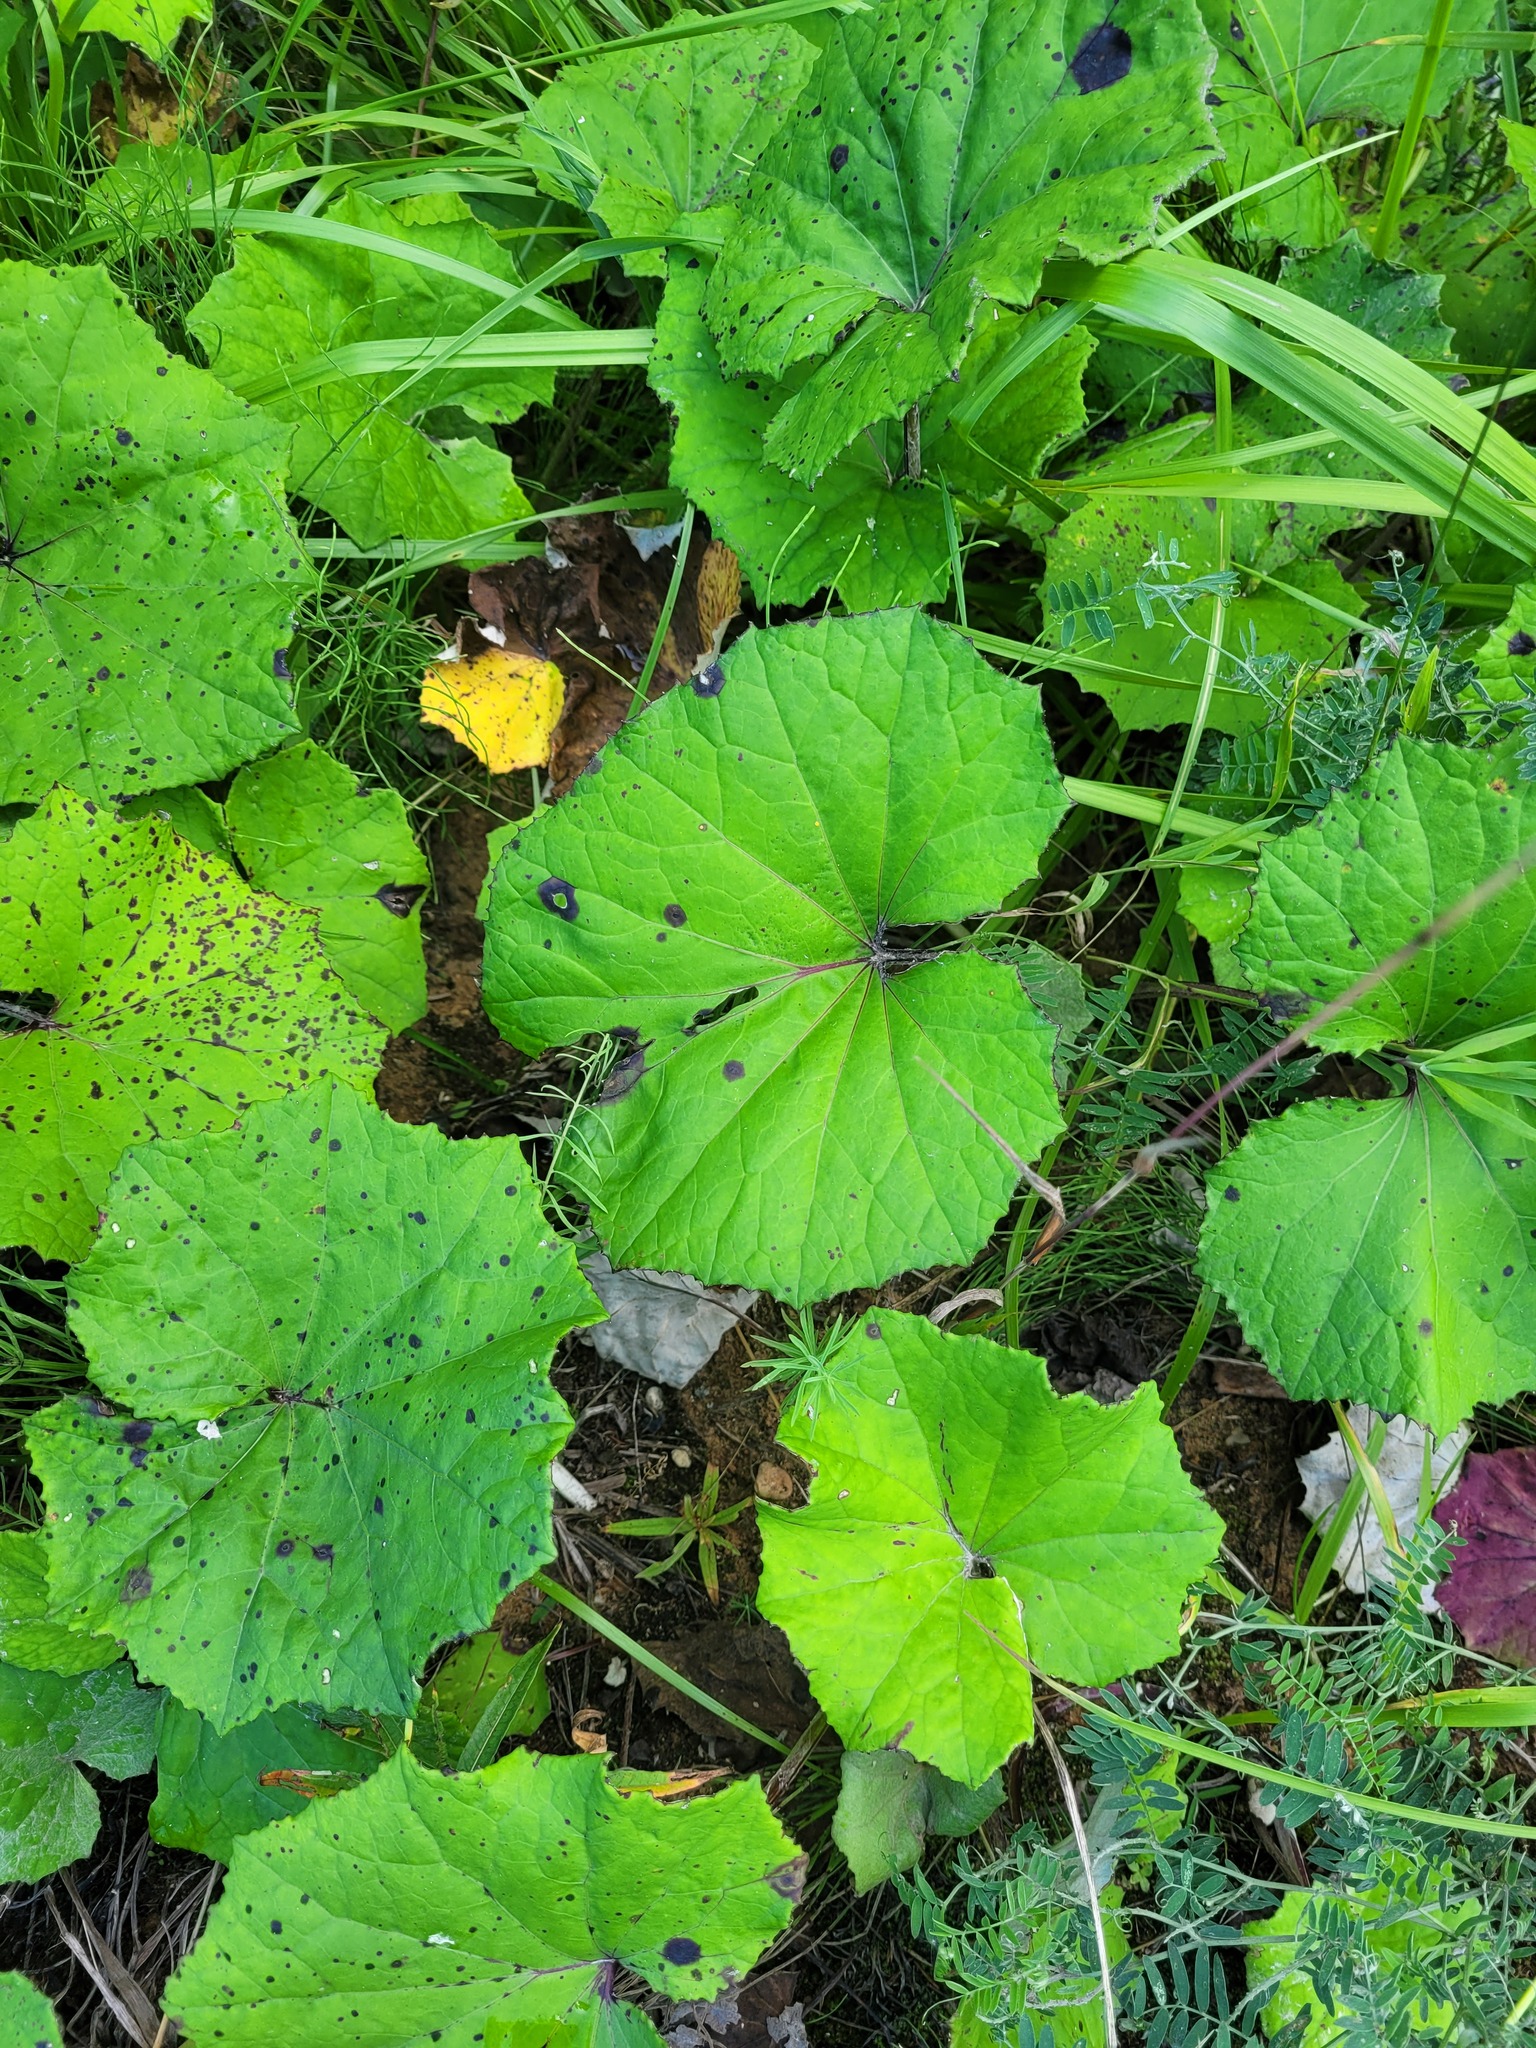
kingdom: Plantae
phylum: Tracheophyta
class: Magnoliopsida
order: Asterales
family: Asteraceae
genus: Tussilago
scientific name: Tussilago farfara
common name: Coltsfoot
